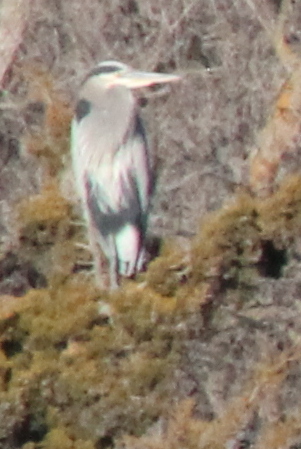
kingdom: Animalia
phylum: Chordata
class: Aves
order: Pelecaniformes
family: Ardeidae
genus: Ardea
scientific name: Ardea herodias
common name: Great blue heron
